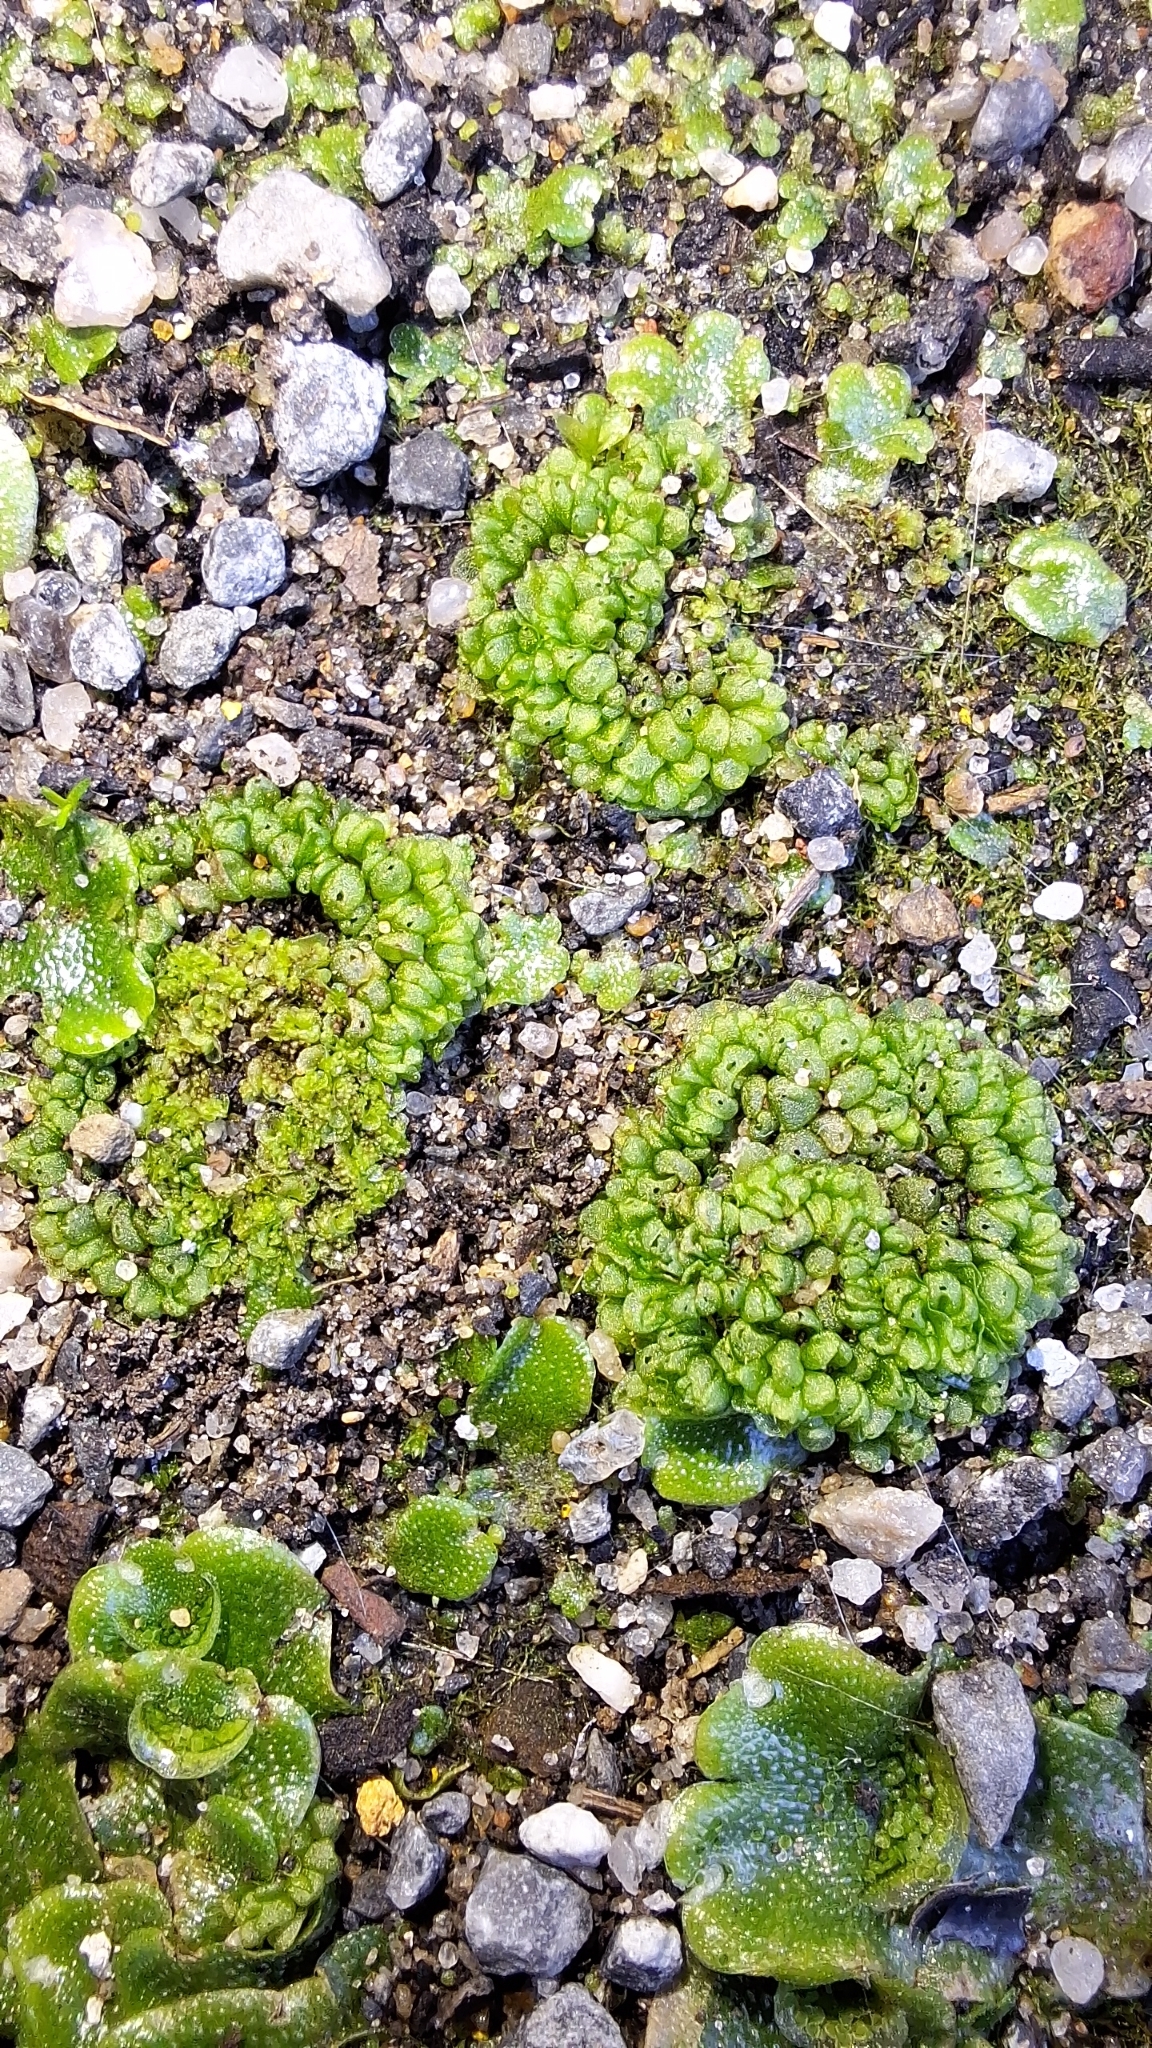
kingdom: Plantae
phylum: Marchantiophyta
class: Marchantiopsida
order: Sphaerocarpales
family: Sphaerocarpaceae
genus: Sphaerocarpos
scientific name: Sphaerocarpos texanus
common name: Texas balloonwort
